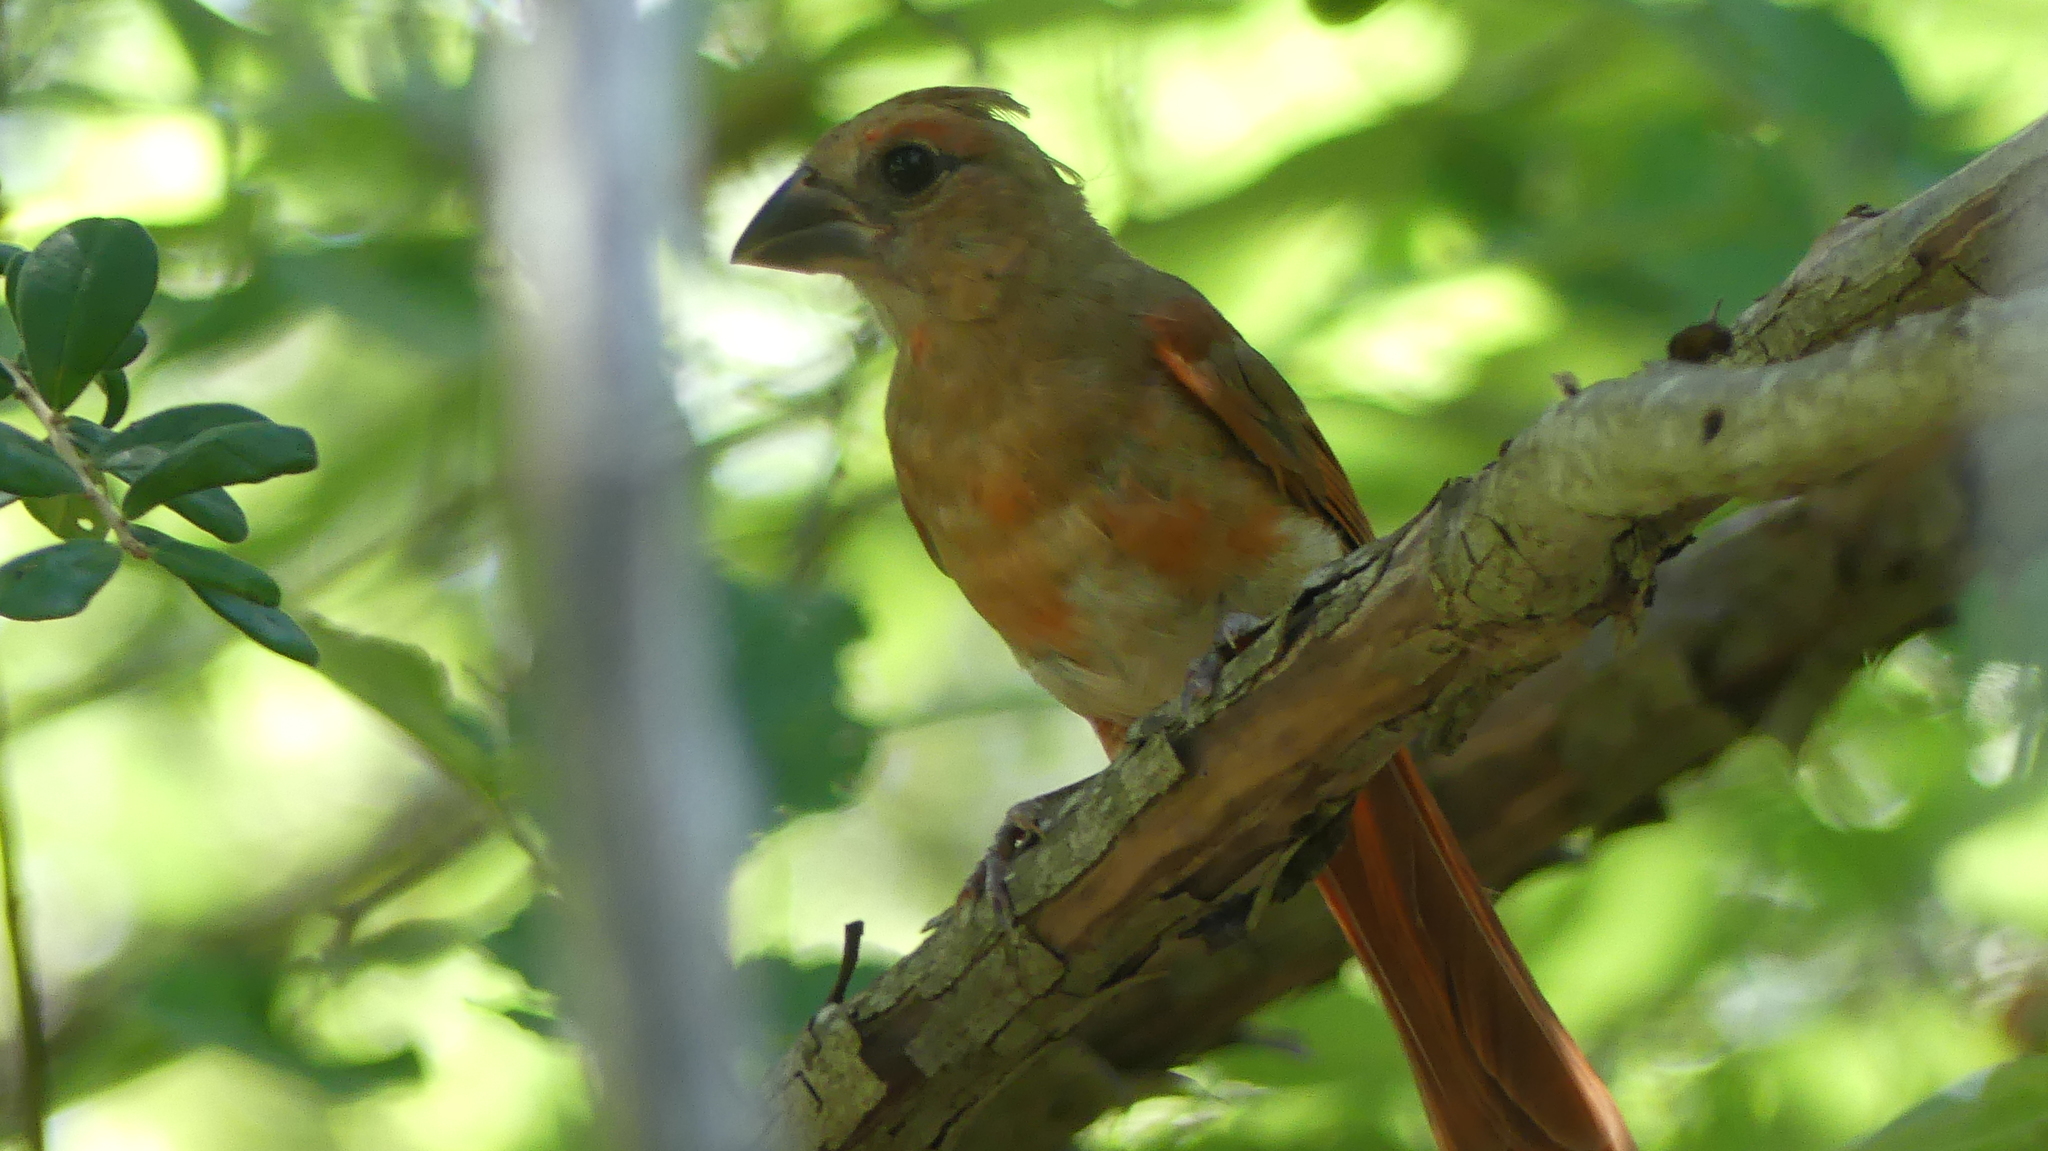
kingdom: Animalia
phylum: Chordata
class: Aves
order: Passeriformes
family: Cardinalidae
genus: Cardinalis
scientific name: Cardinalis cardinalis
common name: Northern cardinal
